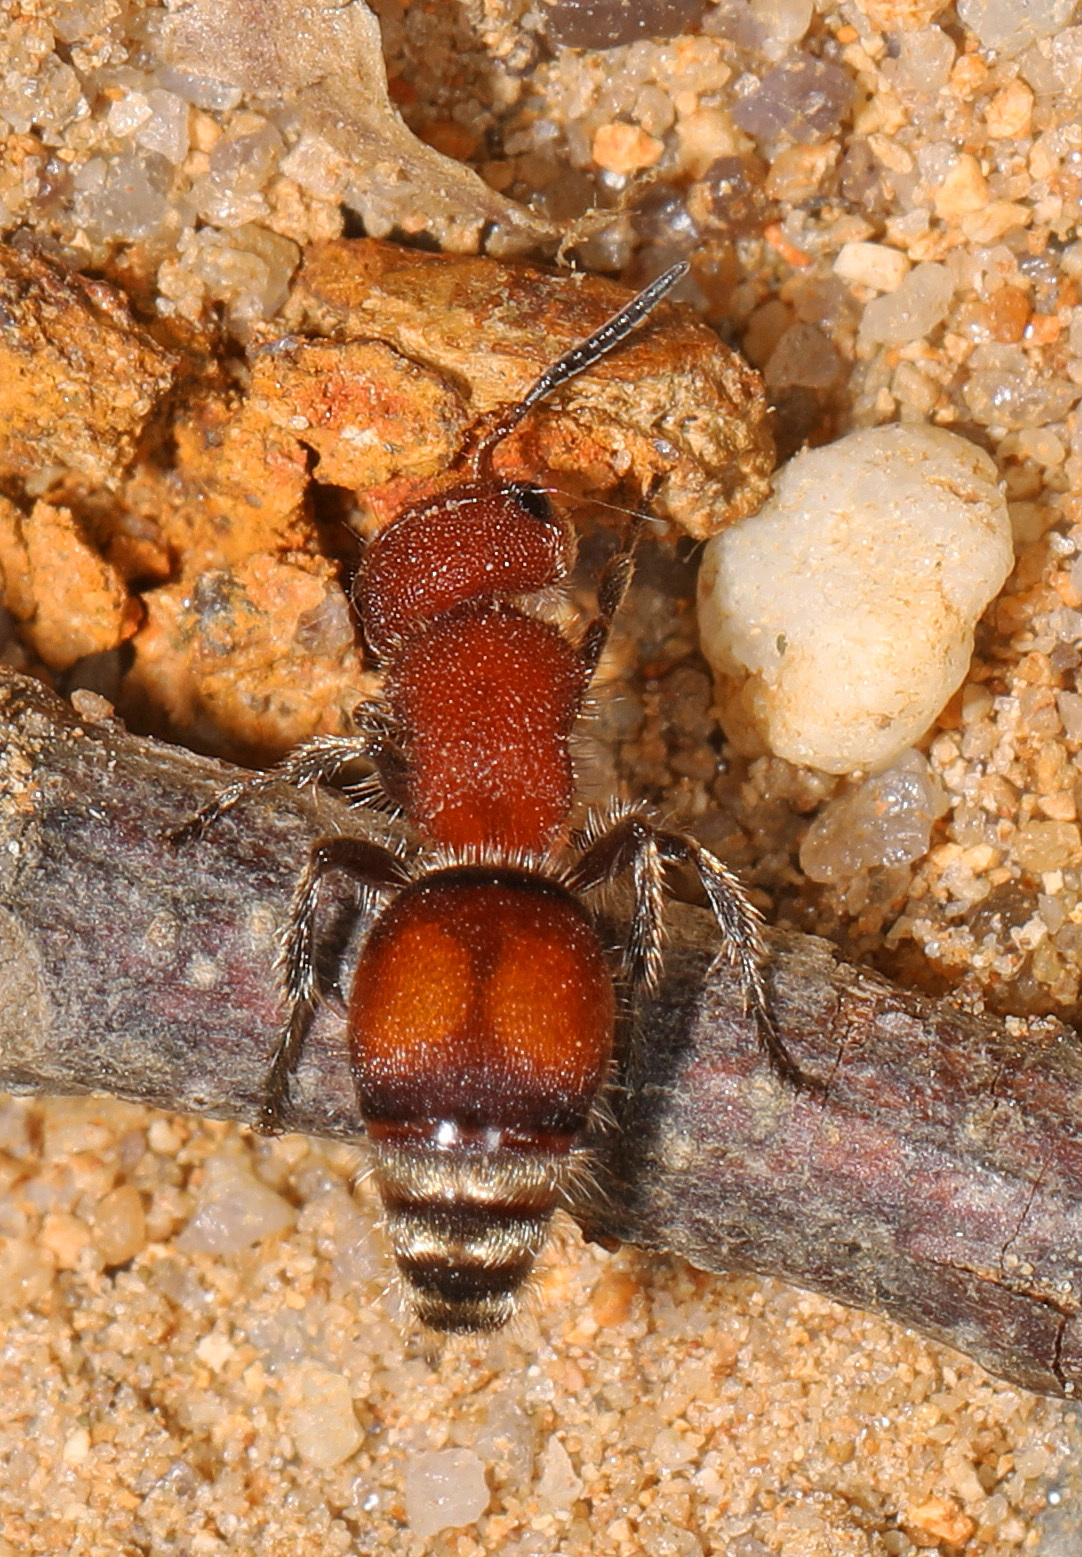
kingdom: Animalia
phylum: Arthropoda
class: Insecta
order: Hymenoptera
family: Mutillidae
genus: Pseudomethoca
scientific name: Pseudomethoca
